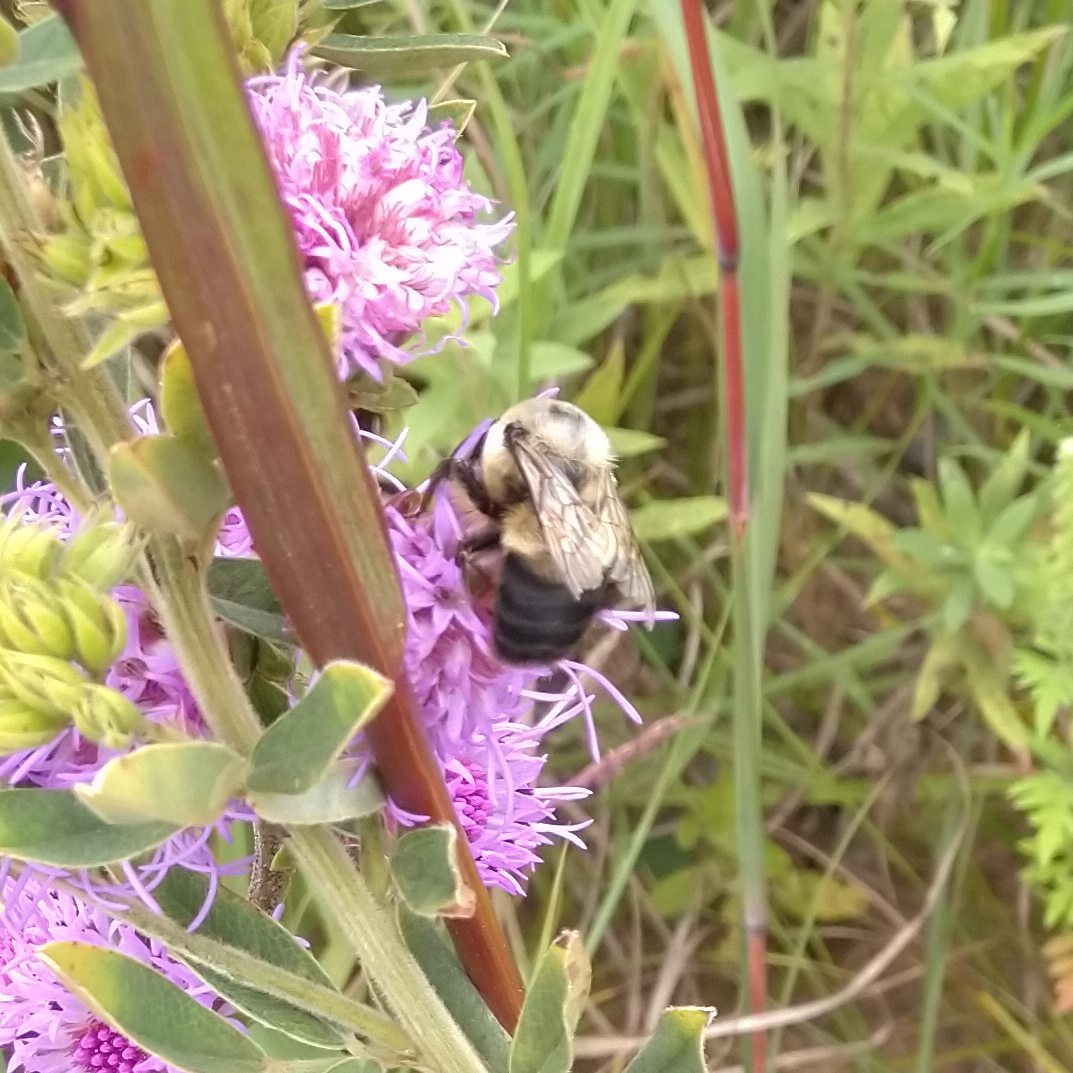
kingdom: Animalia
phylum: Arthropoda
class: Insecta
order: Hymenoptera
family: Apidae
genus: Bombus
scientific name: Bombus griseocollis
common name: Brown-belted bumble bee
